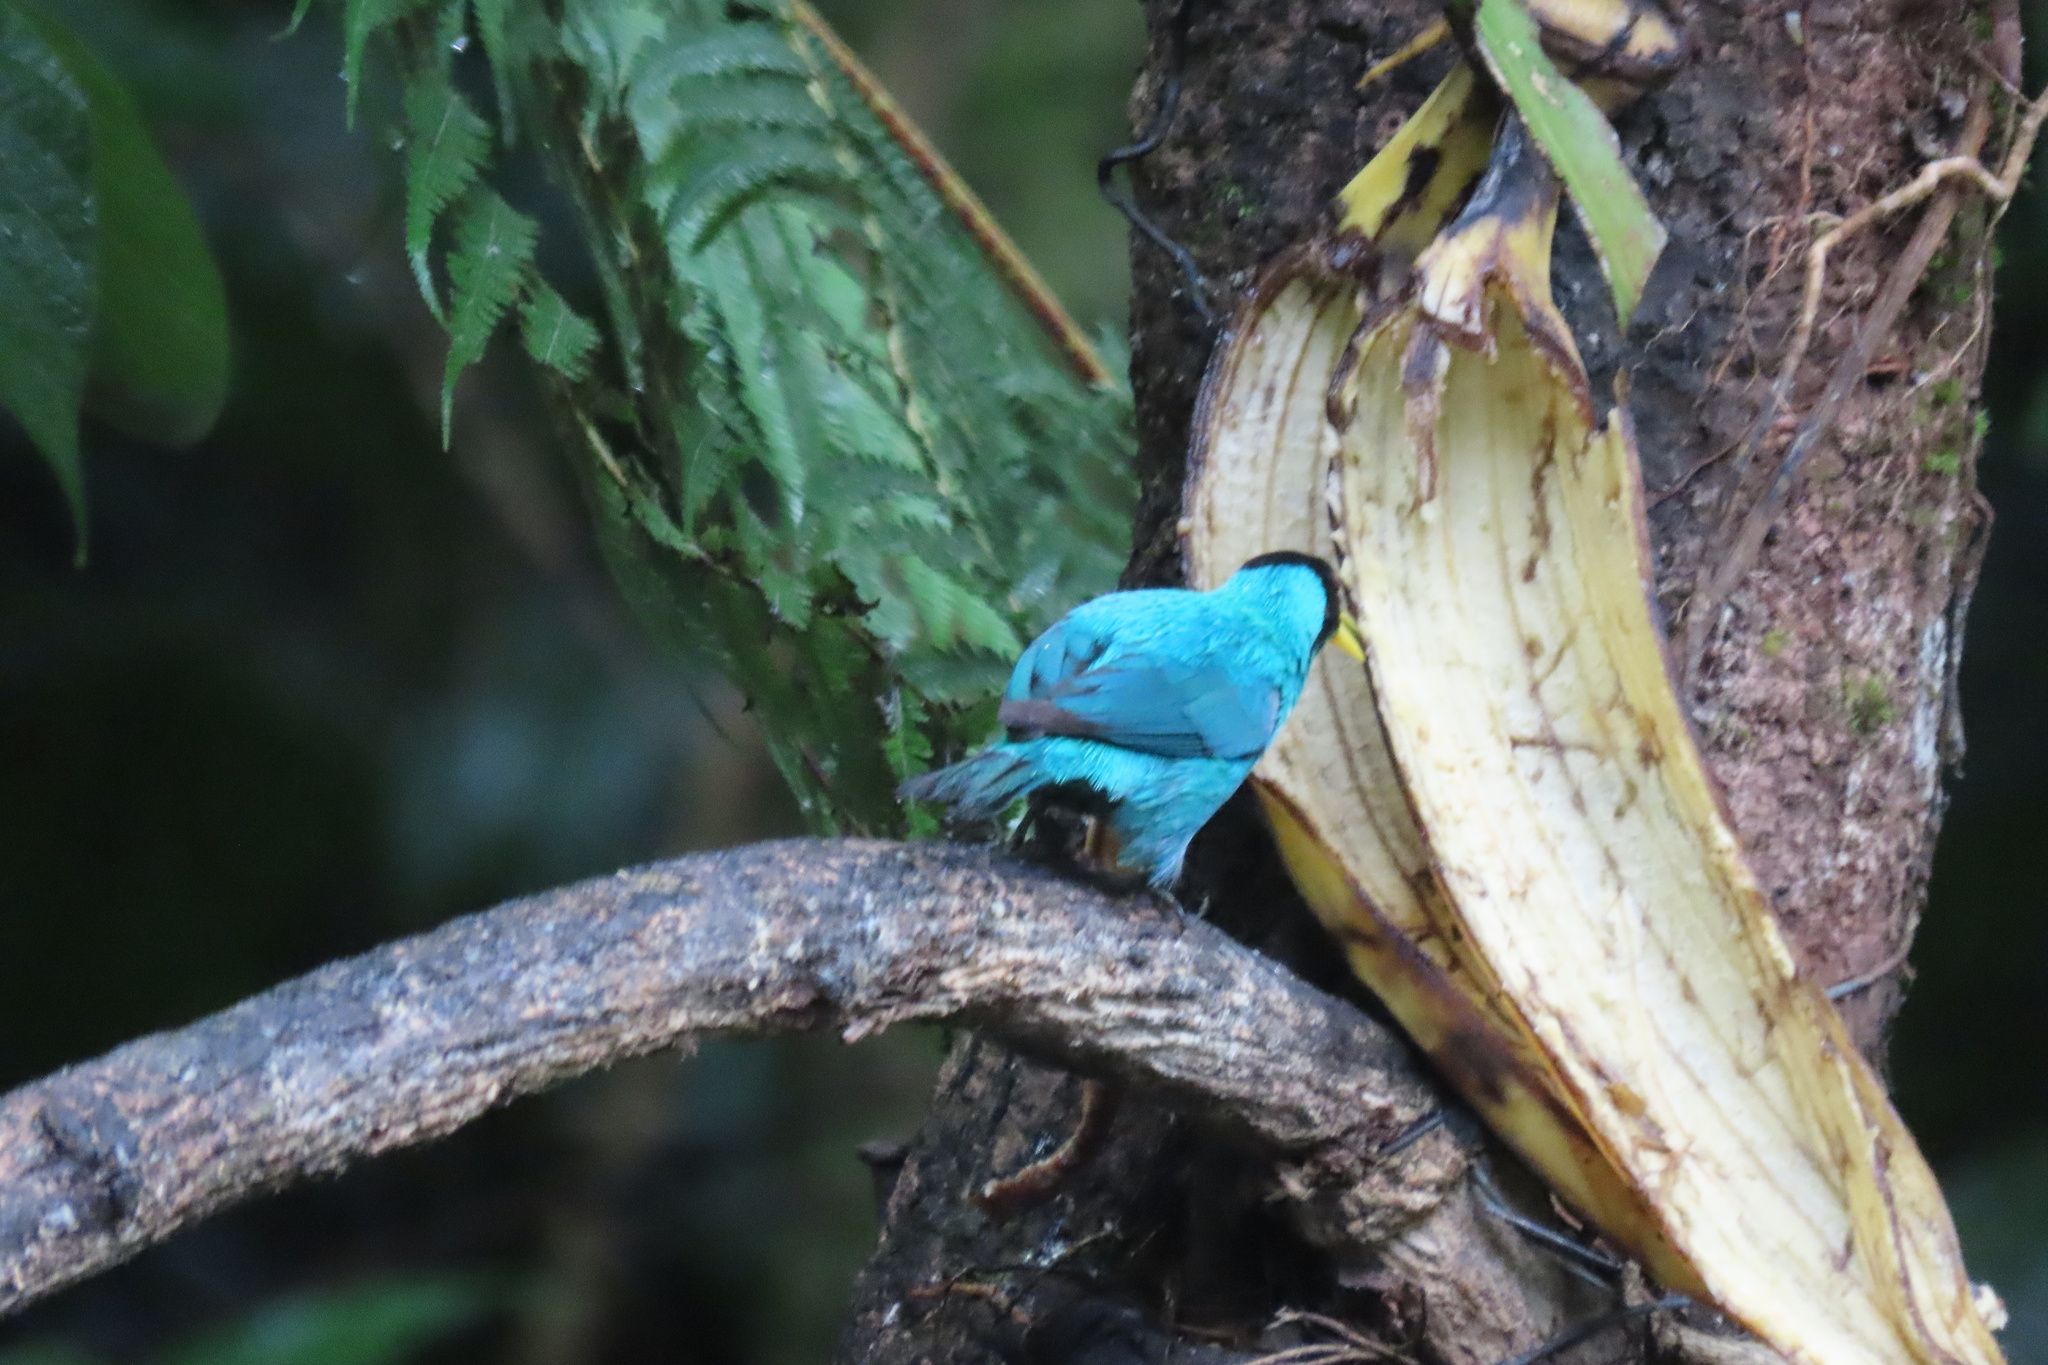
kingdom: Animalia
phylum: Chordata
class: Aves
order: Passeriformes
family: Thraupidae
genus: Chlorophanes
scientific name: Chlorophanes spiza
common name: Green honeycreeper
